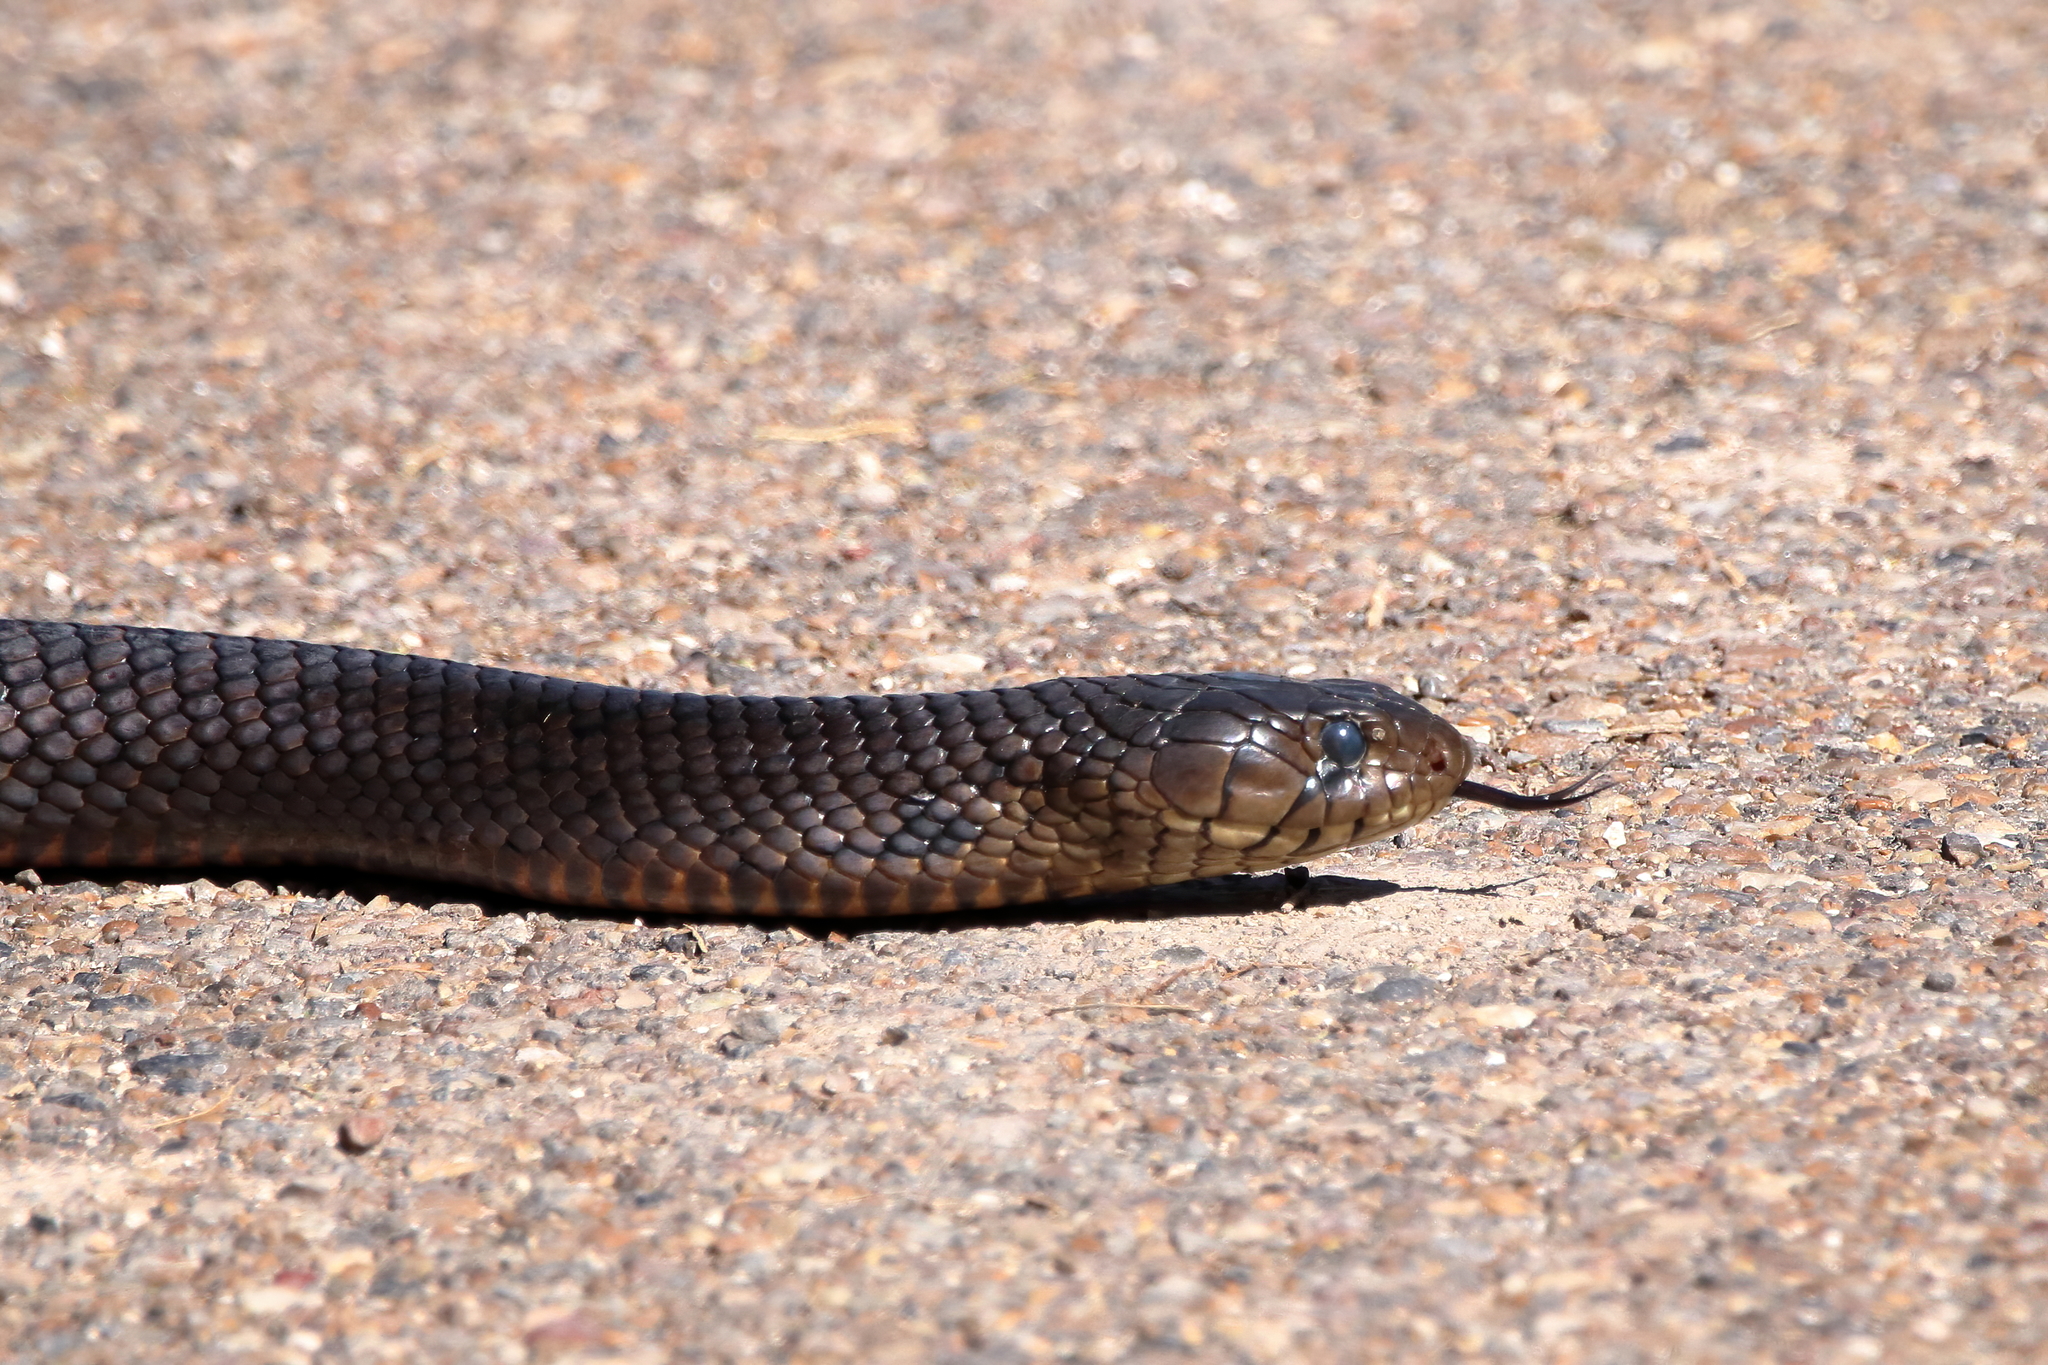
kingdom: Animalia
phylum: Chordata
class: Squamata
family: Colubridae
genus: Drymarchon
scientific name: Drymarchon melanurus
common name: Central american indigo snake
